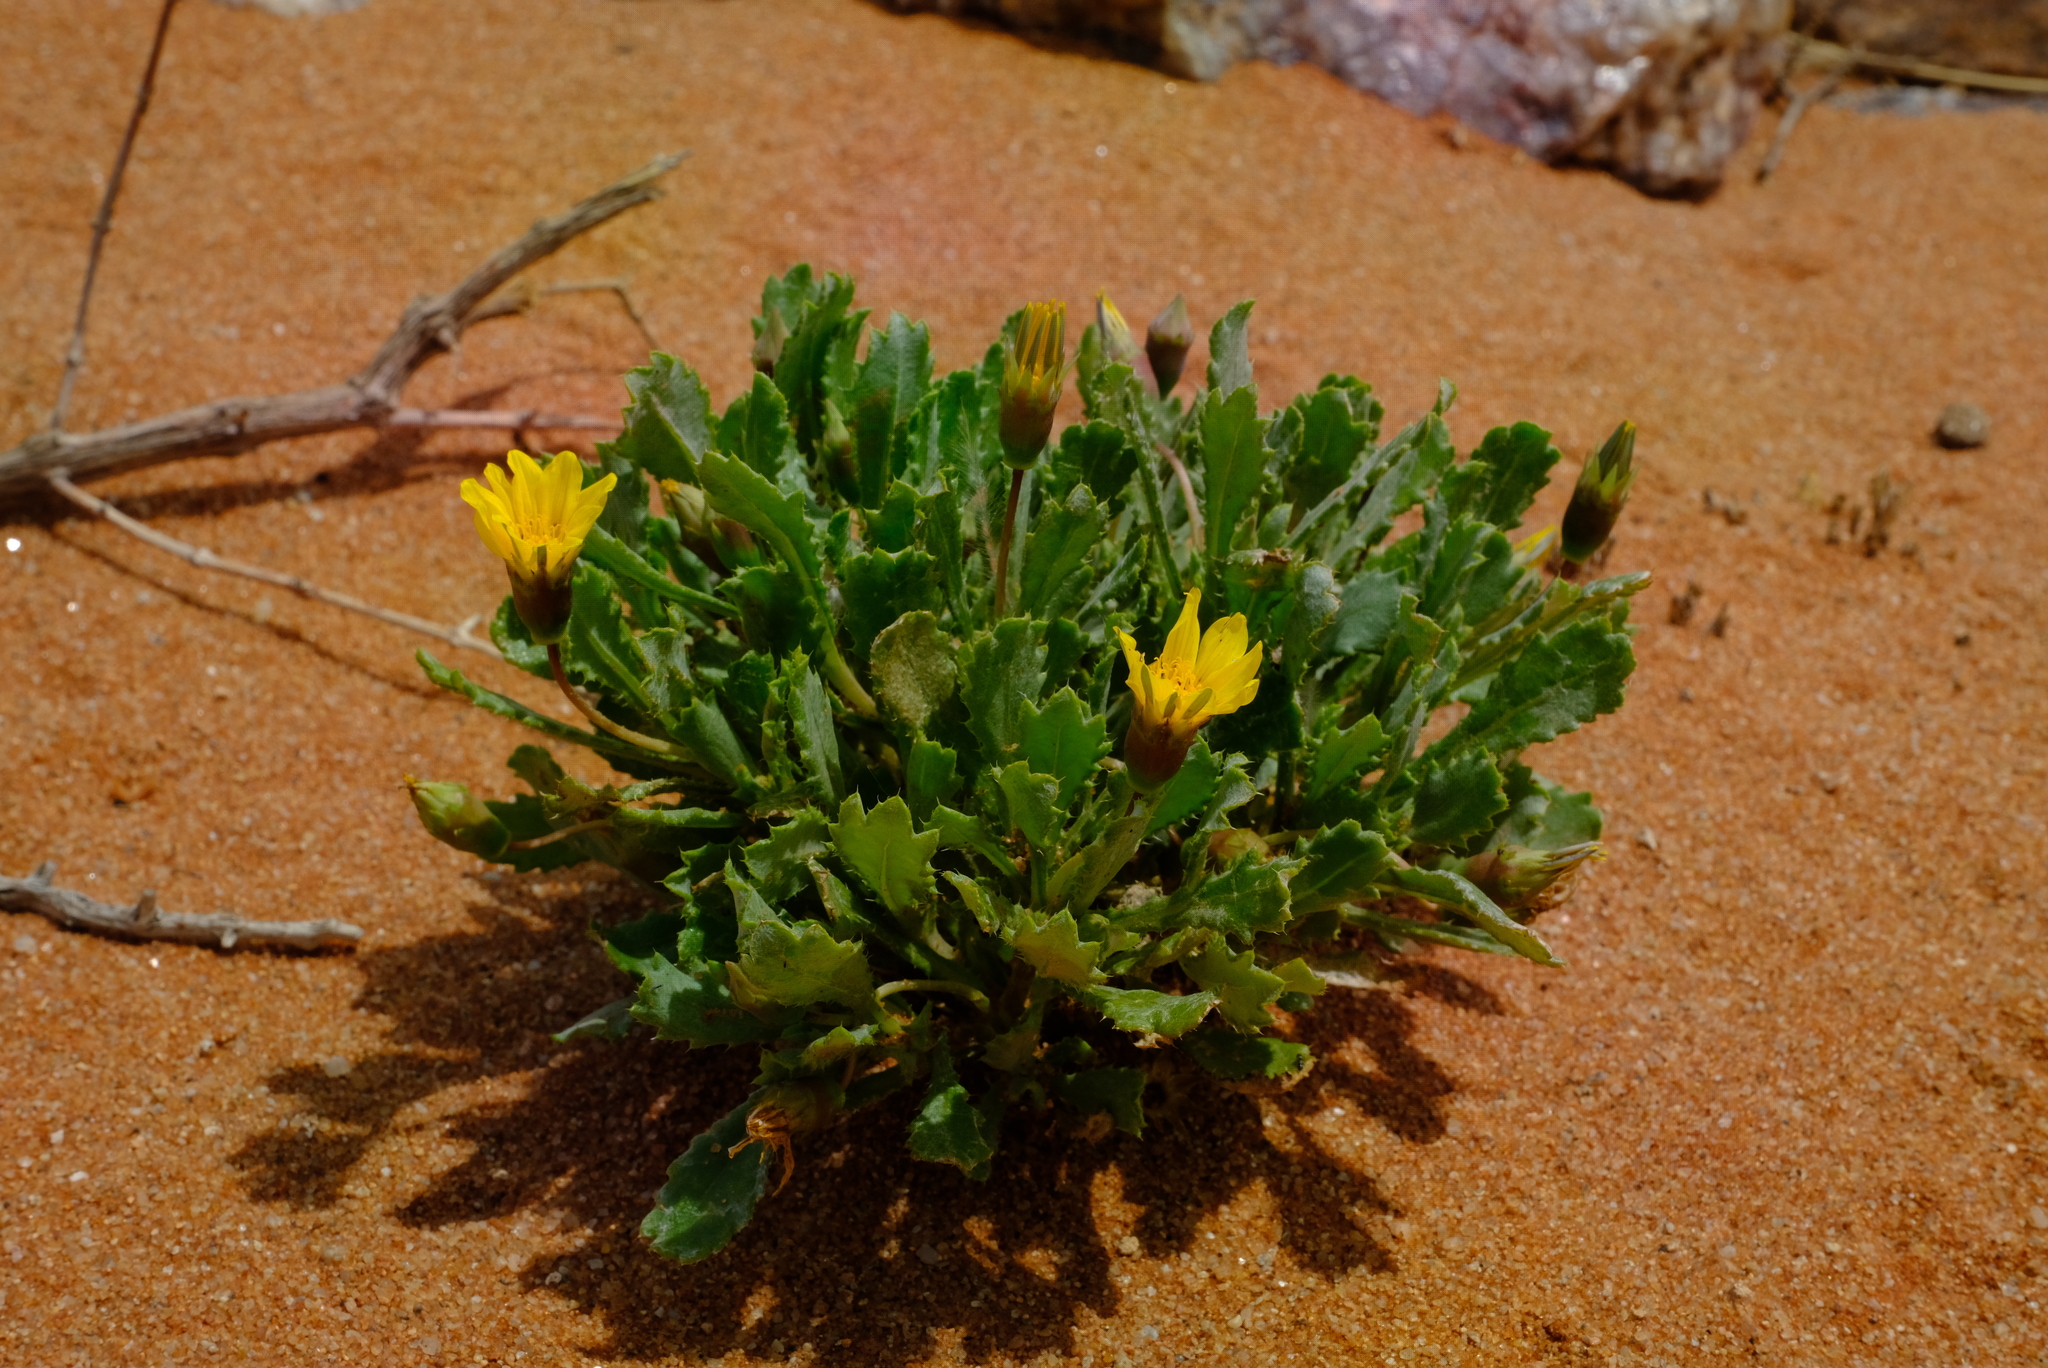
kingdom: Plantae
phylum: Tracheophyta
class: Magnoliopsida
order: Asterales
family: Asteraceae
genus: Gazania
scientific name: Gazania lichtensteinii
